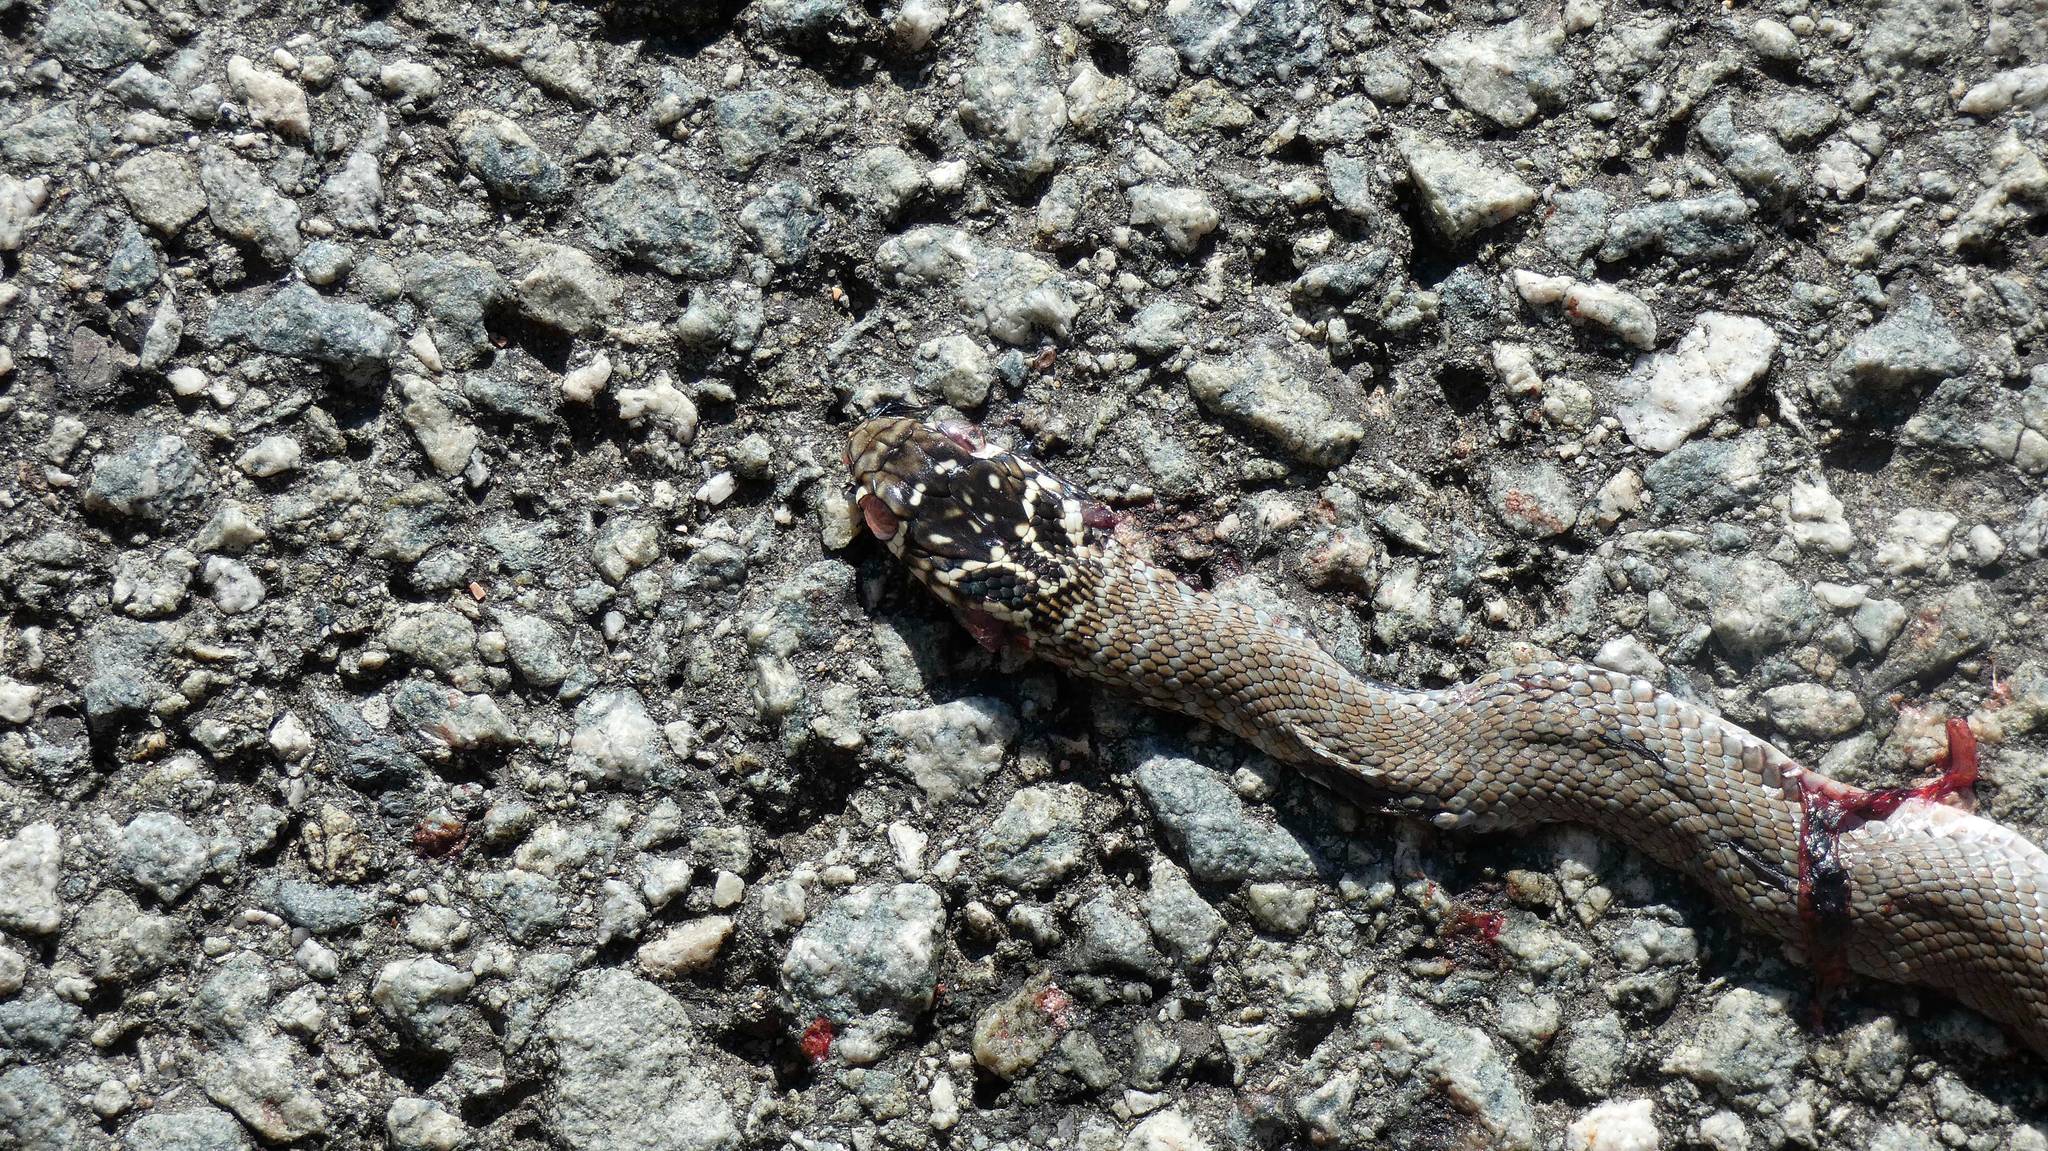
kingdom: Animalia
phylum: Chordata
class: Squamata
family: Colubridae
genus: Hierophis
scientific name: Hierophis viridiflavus
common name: Green whip snake
